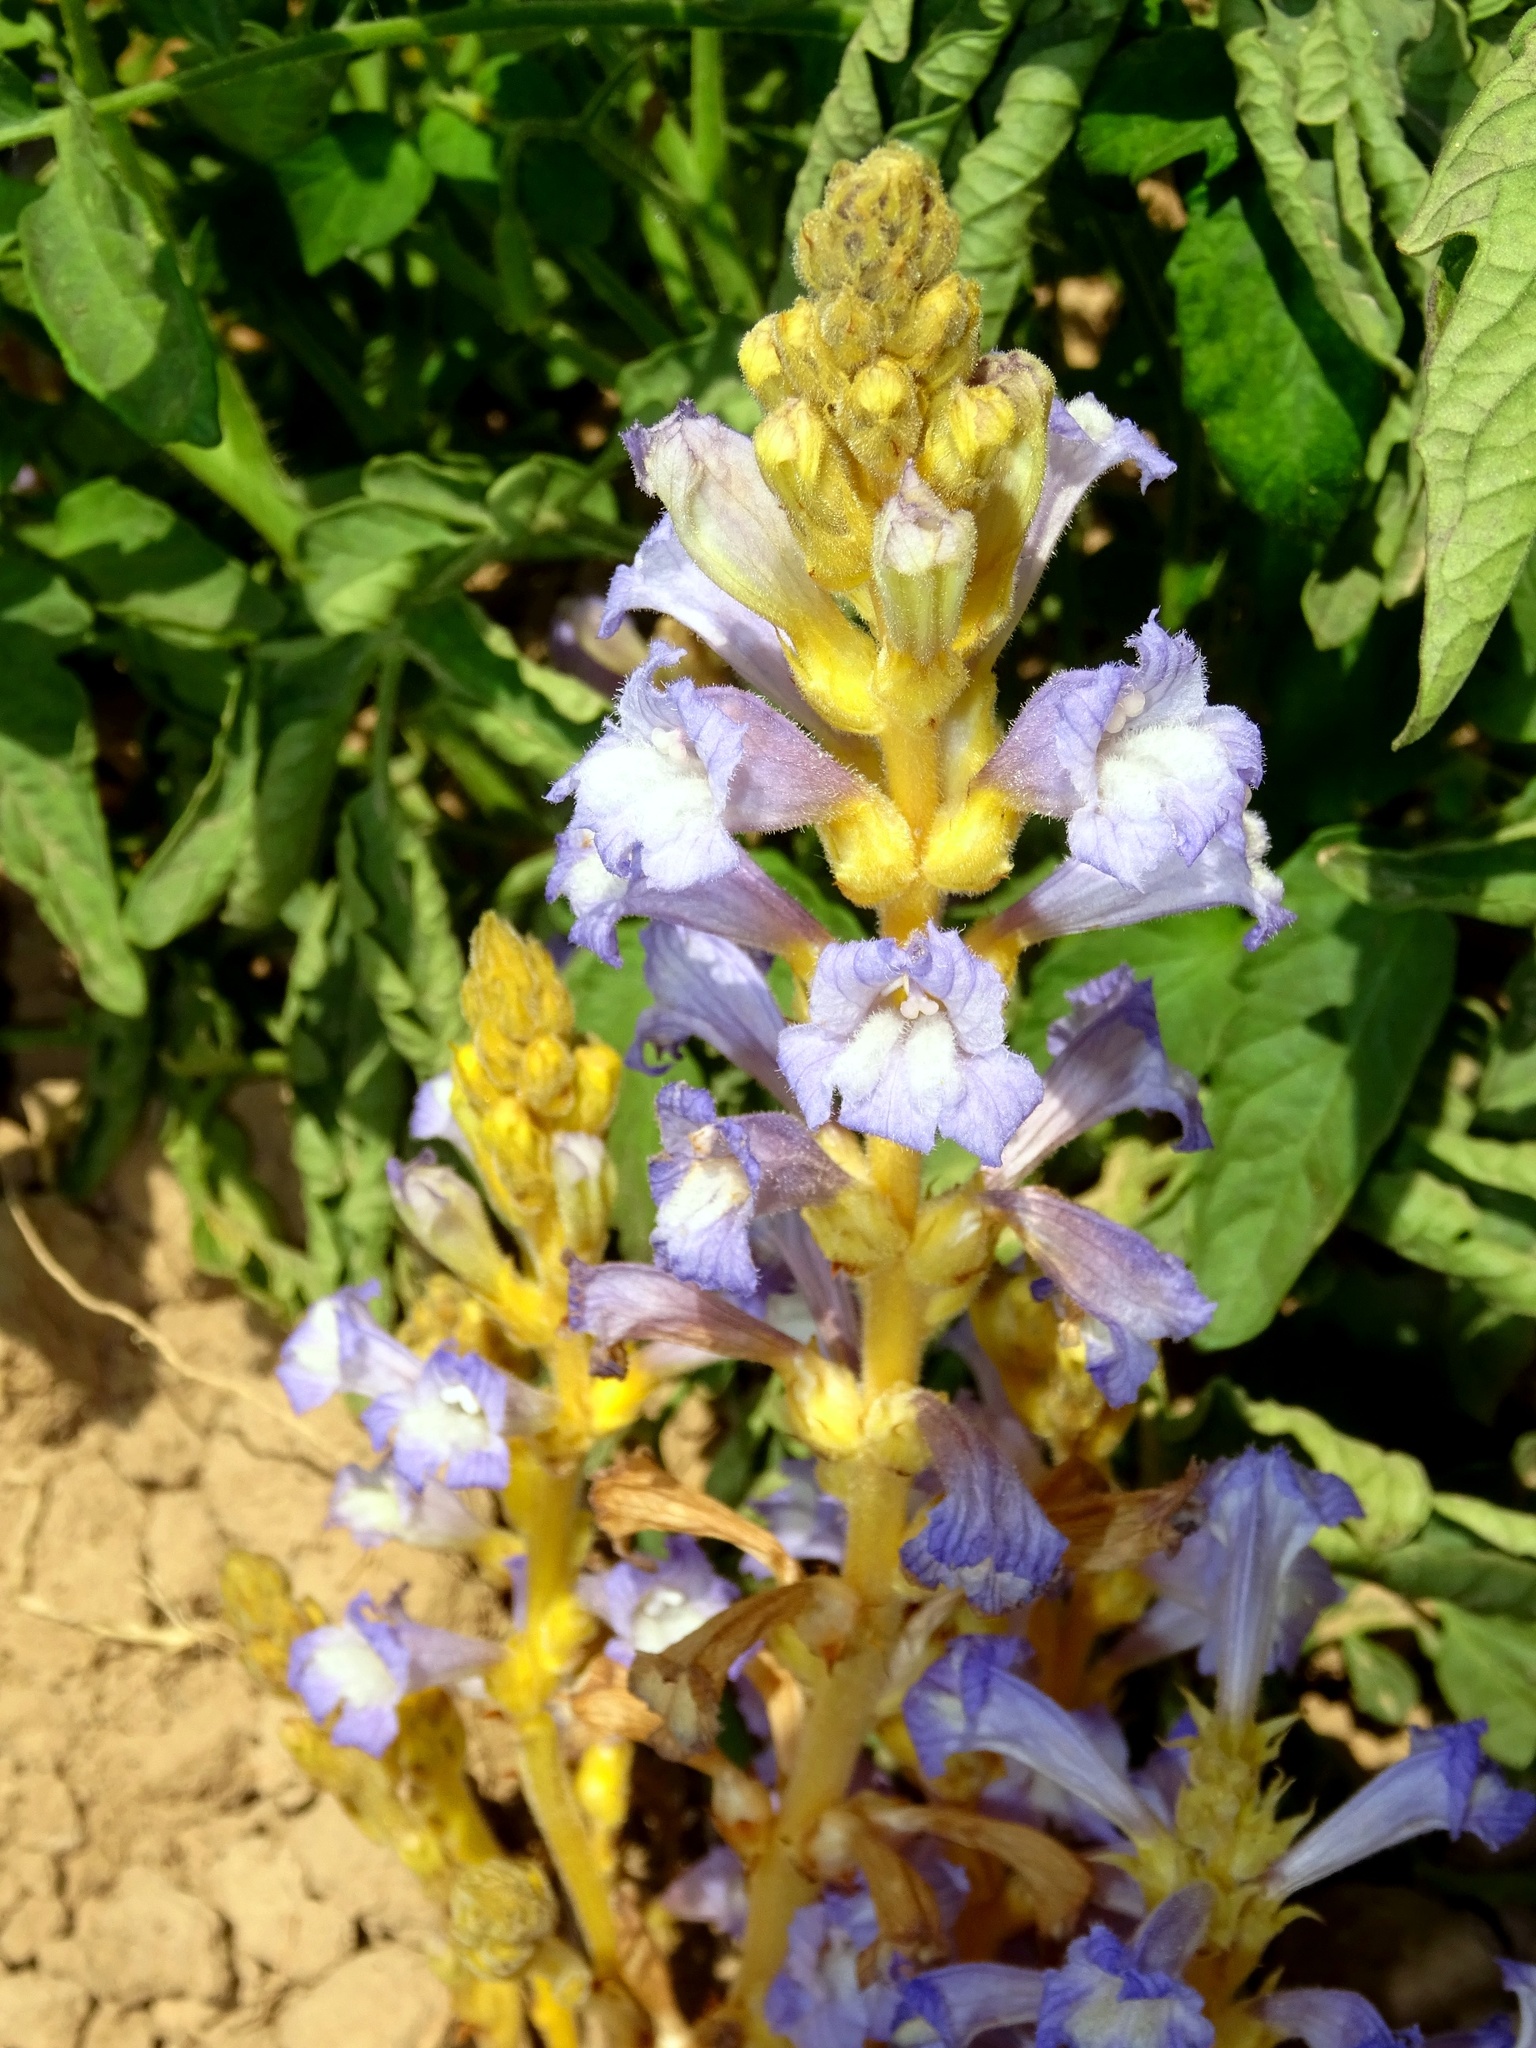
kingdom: Plantae
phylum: Tracheophyta
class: Magnoliopsida
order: Lamiales
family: Orobanchaceae
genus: Phelipanche
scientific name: Phelipanche aegyptiaca
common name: Egyptian broomrape
